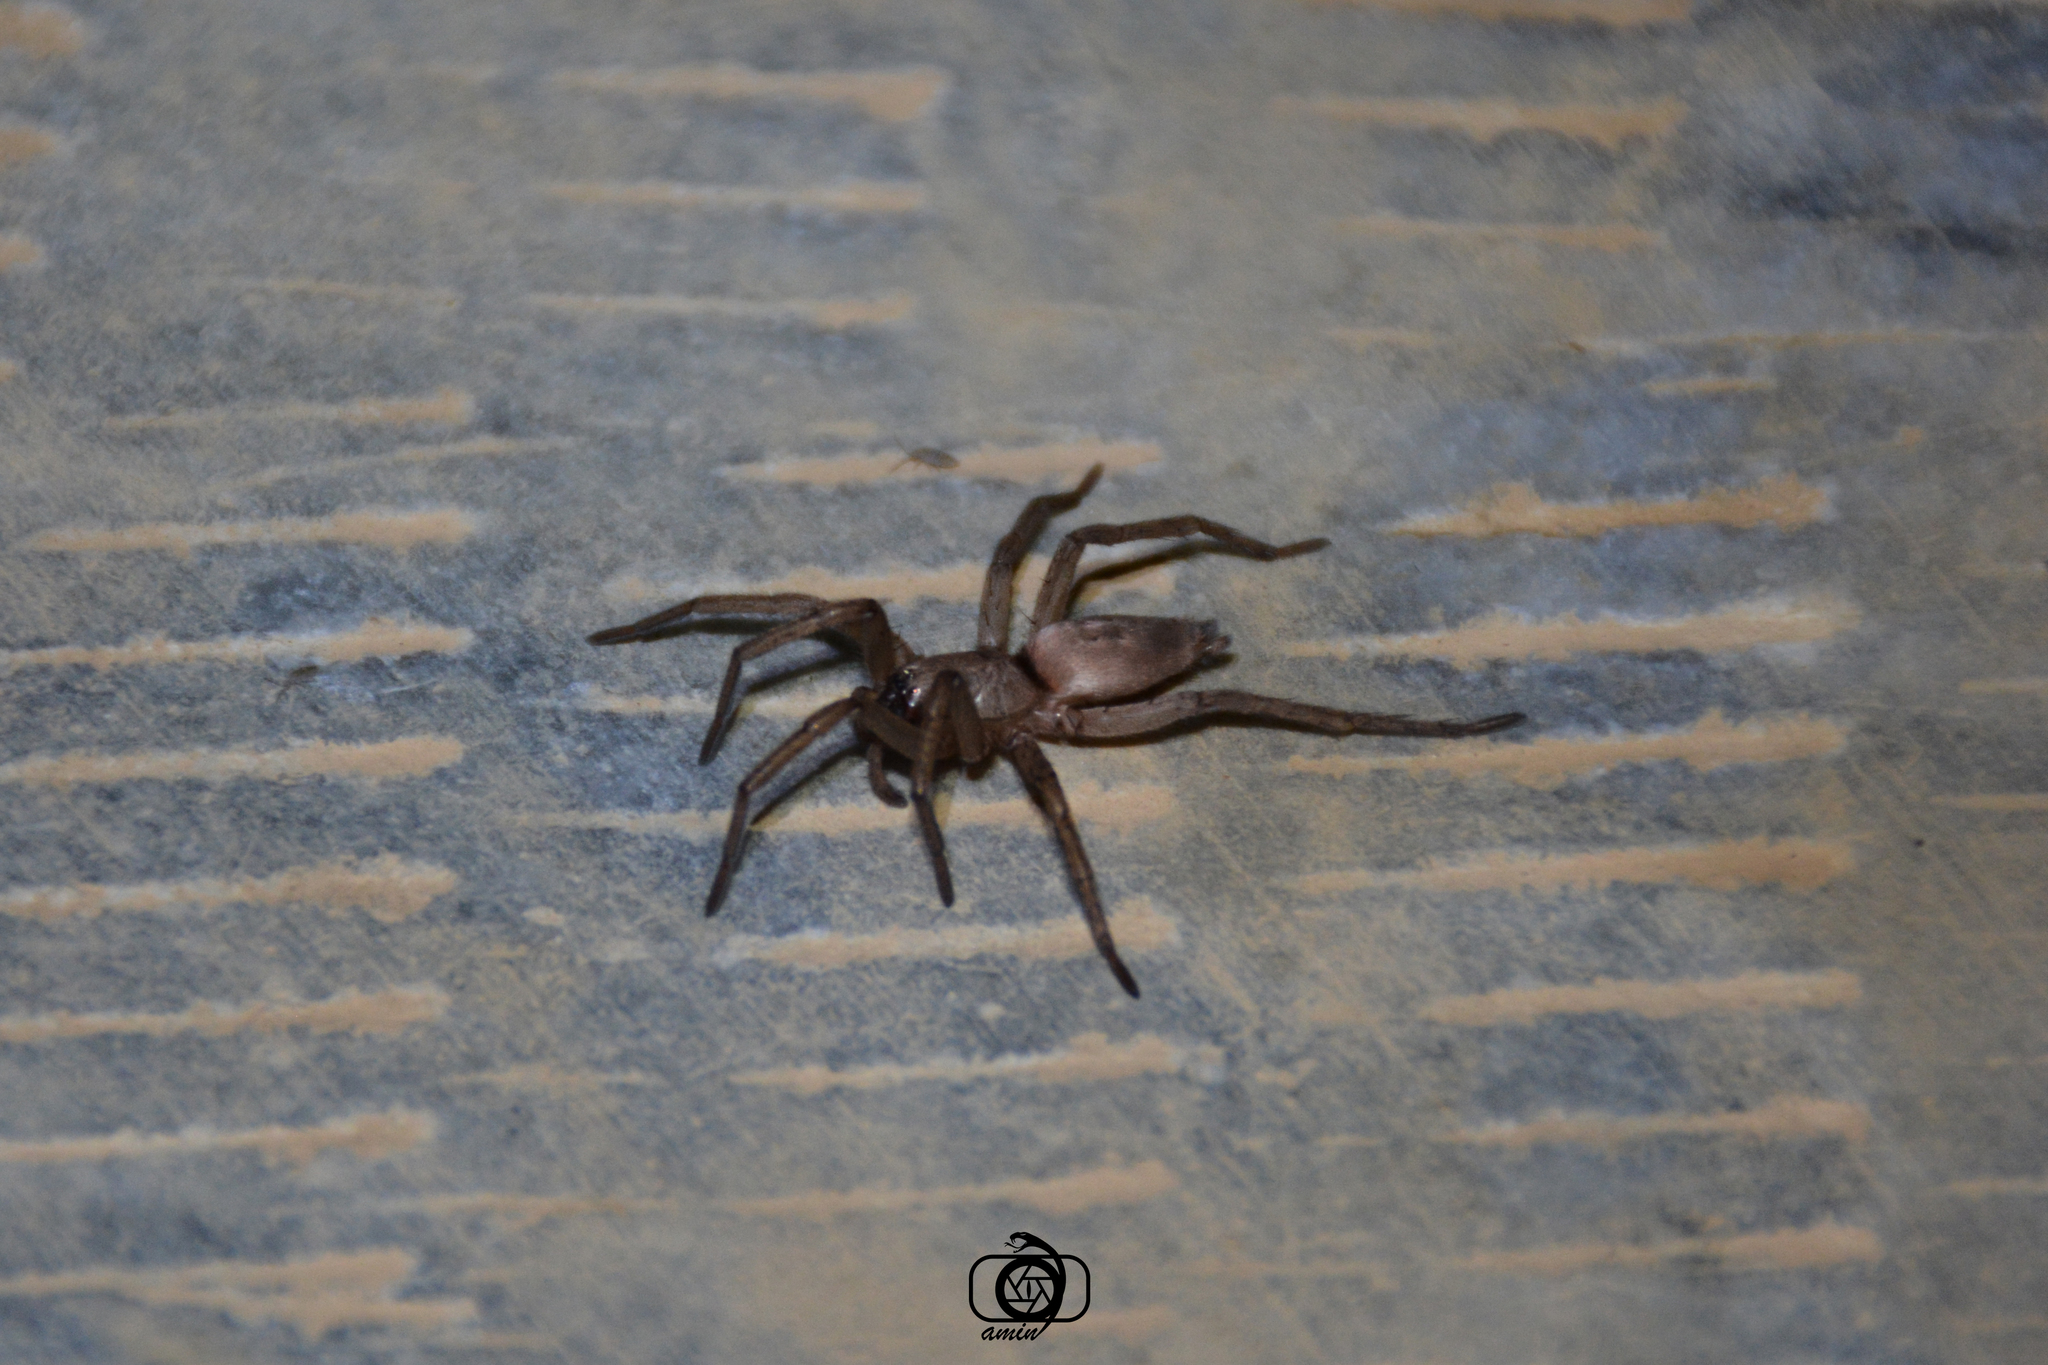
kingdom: Animalia
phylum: Arthropoda
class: Arachnida
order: Araneae
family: Gnaphosidae
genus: Drassodes
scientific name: Drassodes lapidosus
